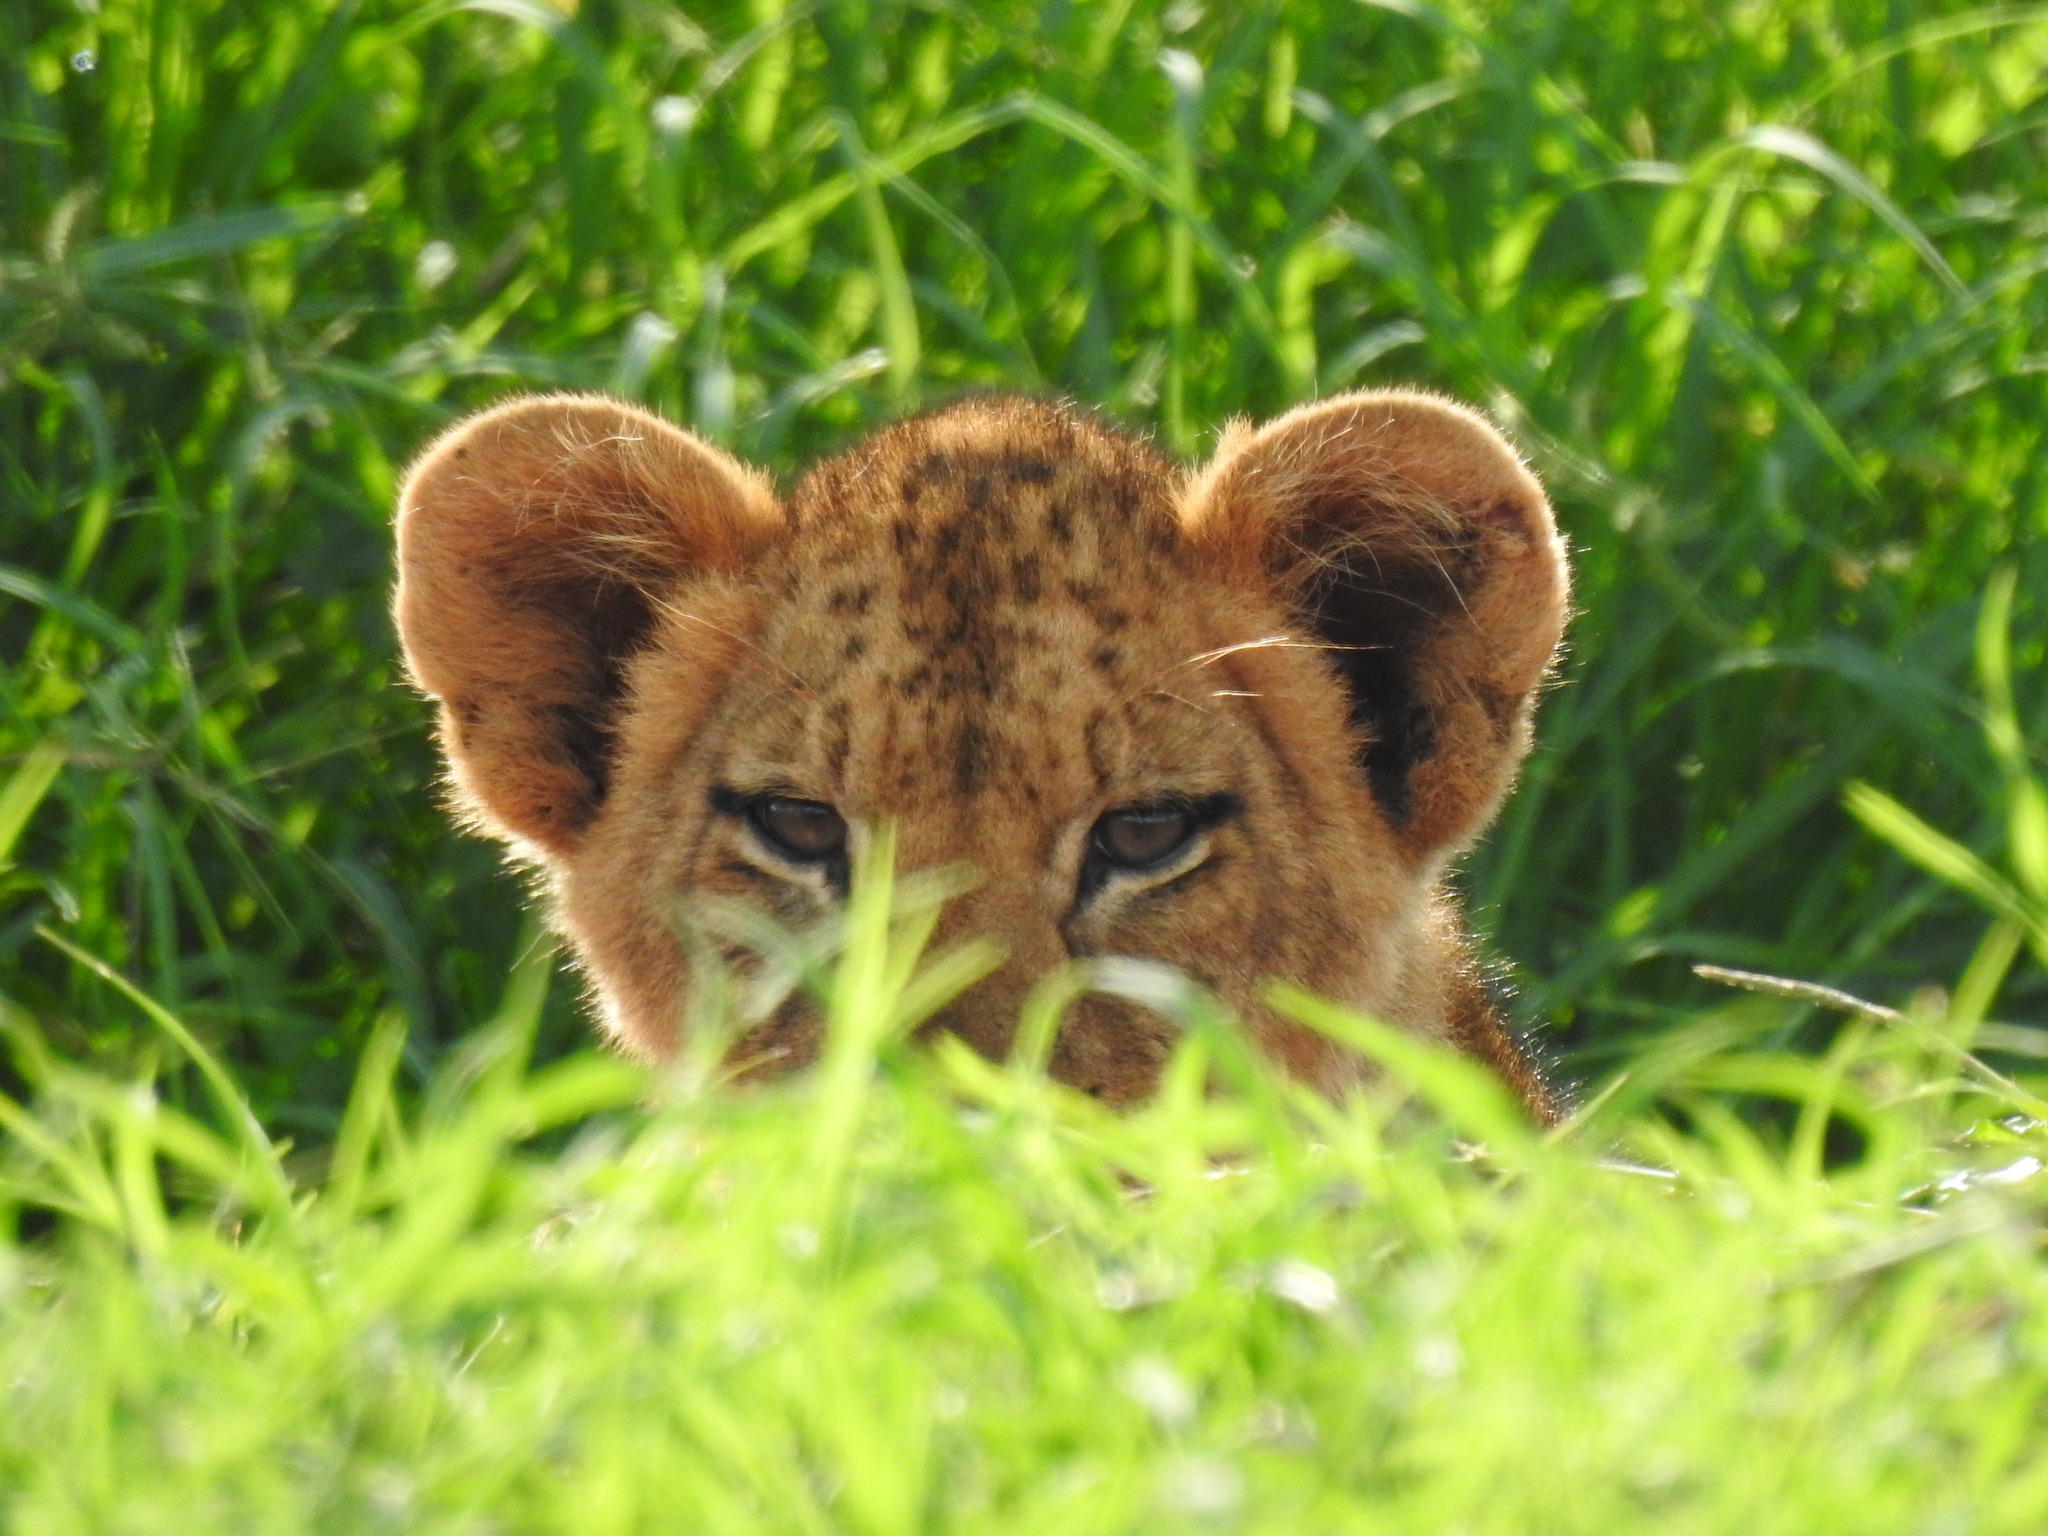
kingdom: Animalia
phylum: Chordata
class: Mammalia
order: Carnivora
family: Felidae
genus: Panthera
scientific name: Panthera leo
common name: Lion
